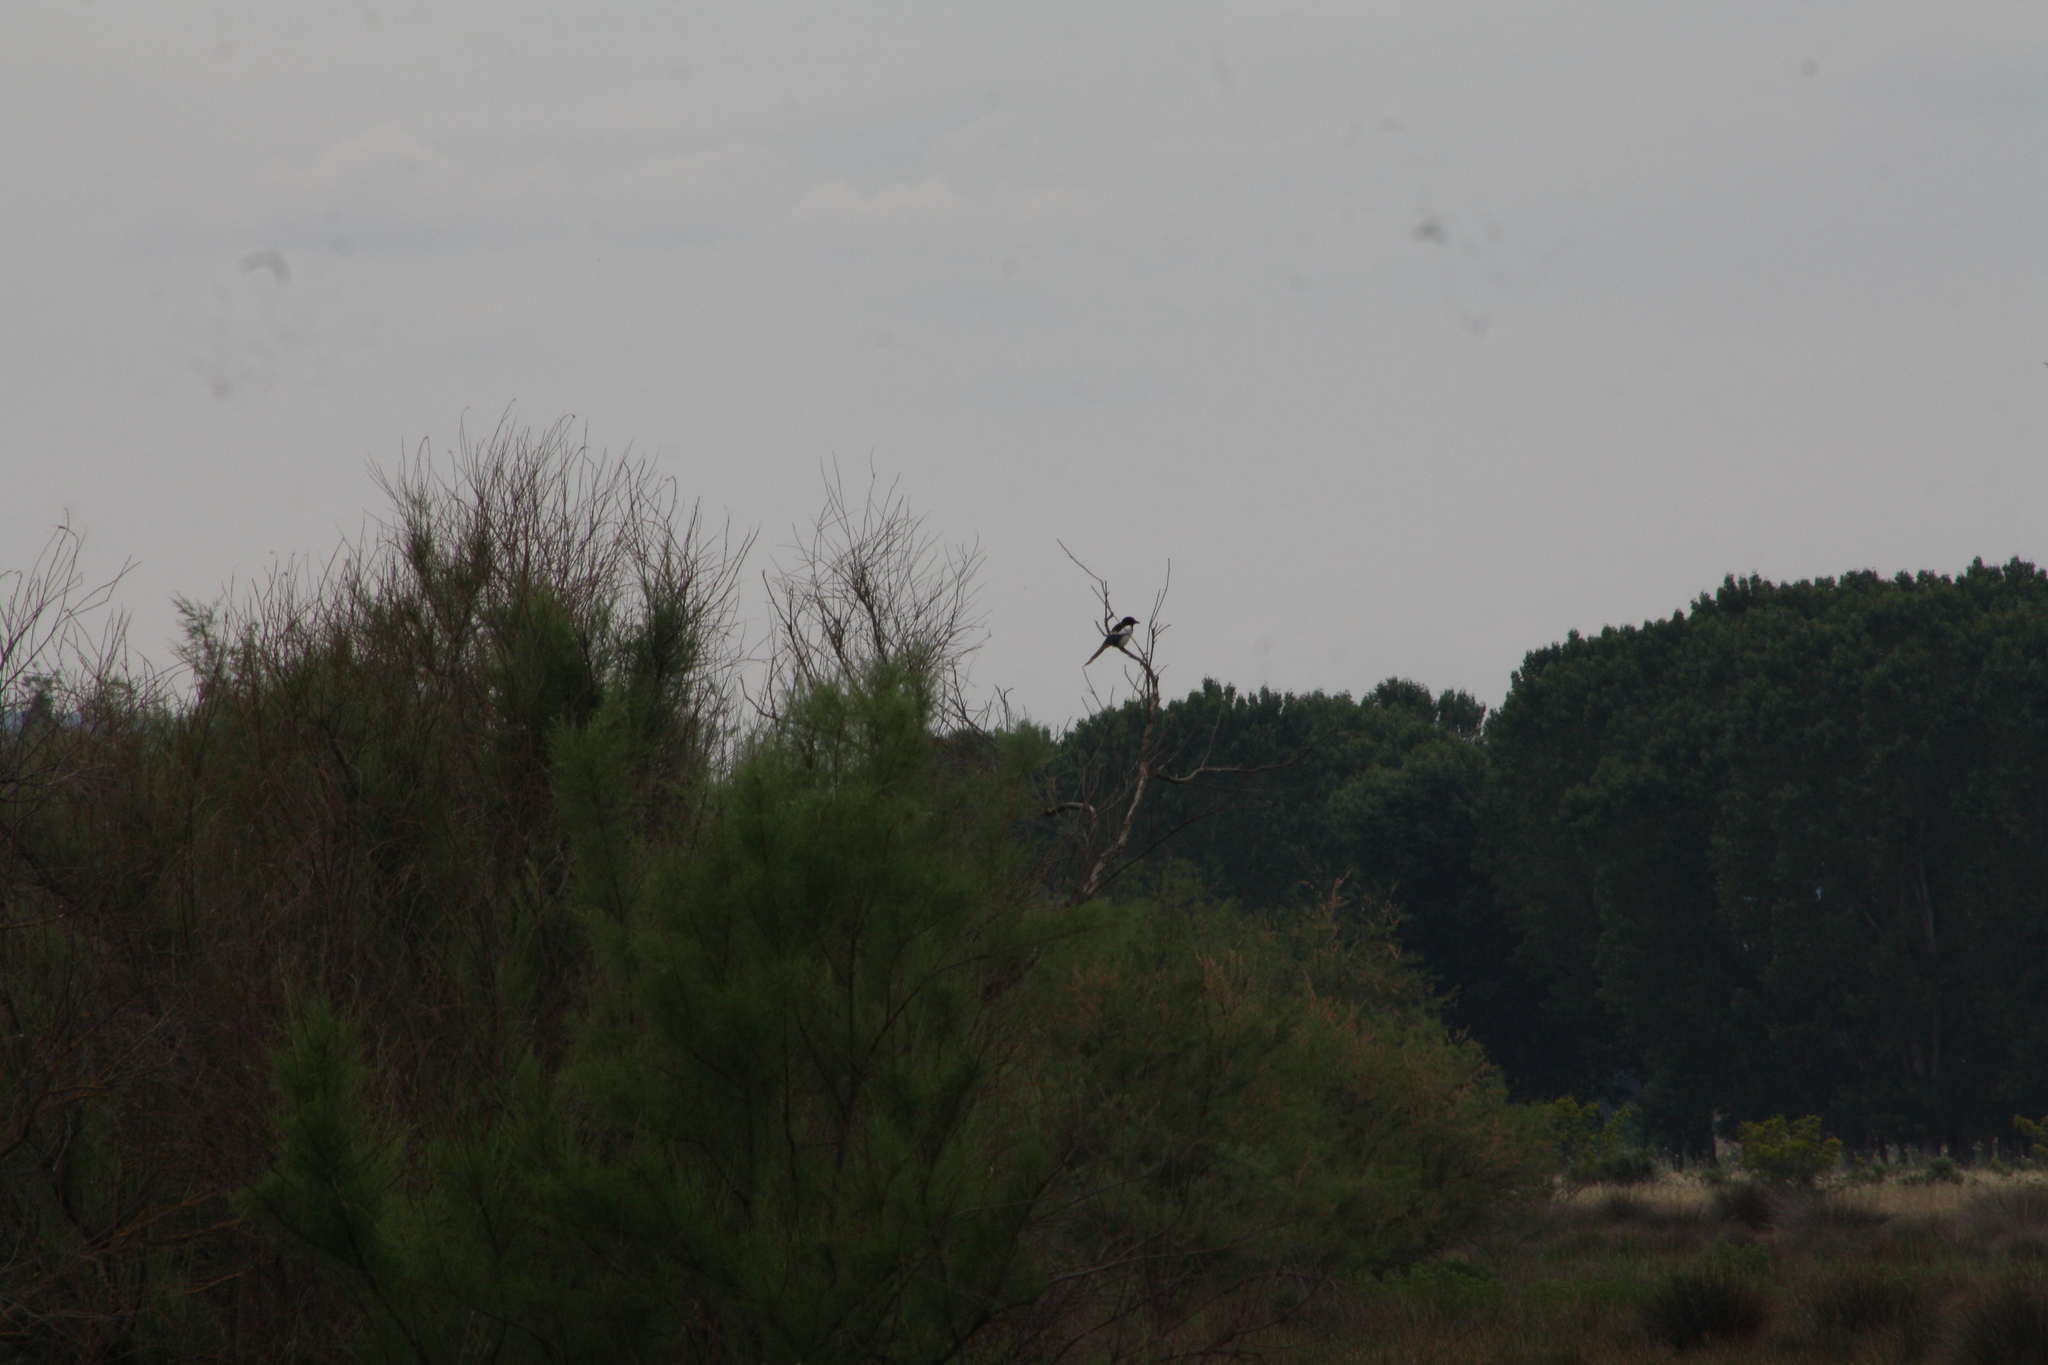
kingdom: Animalia
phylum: Chordata
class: Aves
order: Passeriformes
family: Corvidae
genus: Pica
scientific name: Pica pica
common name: Eurasian magpie
